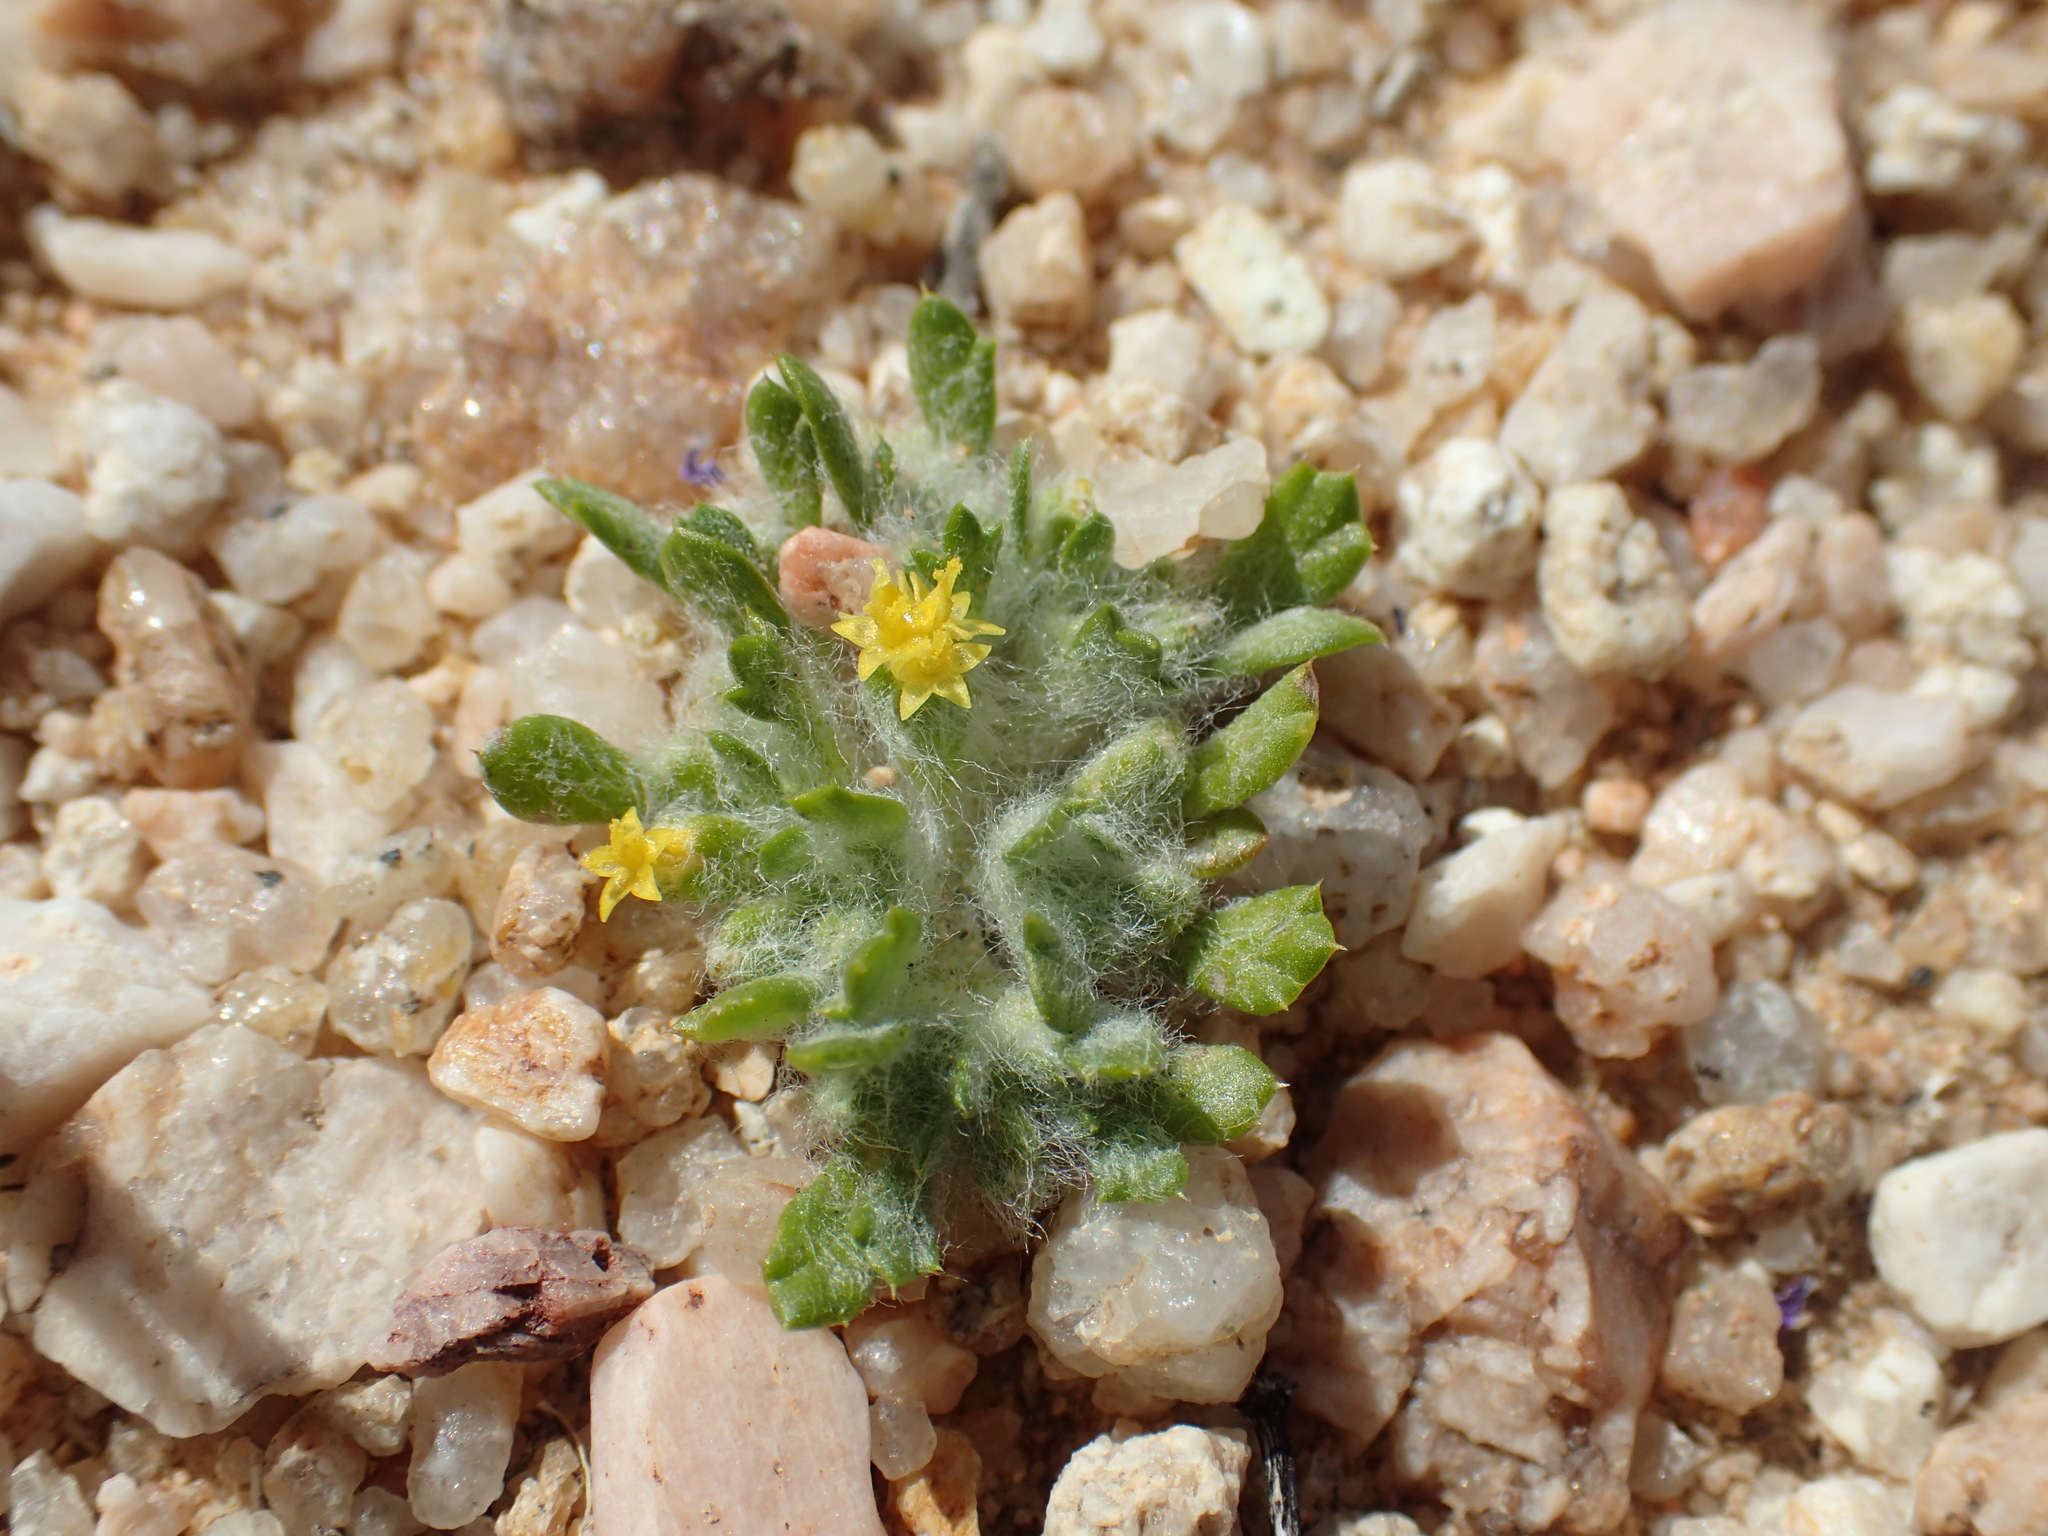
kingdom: Plantae
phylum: Tracheophyta
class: Magnoliopsida
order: Asterales
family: Asteraceae
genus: Eriophyllum
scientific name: Eriophyllum mohavense
